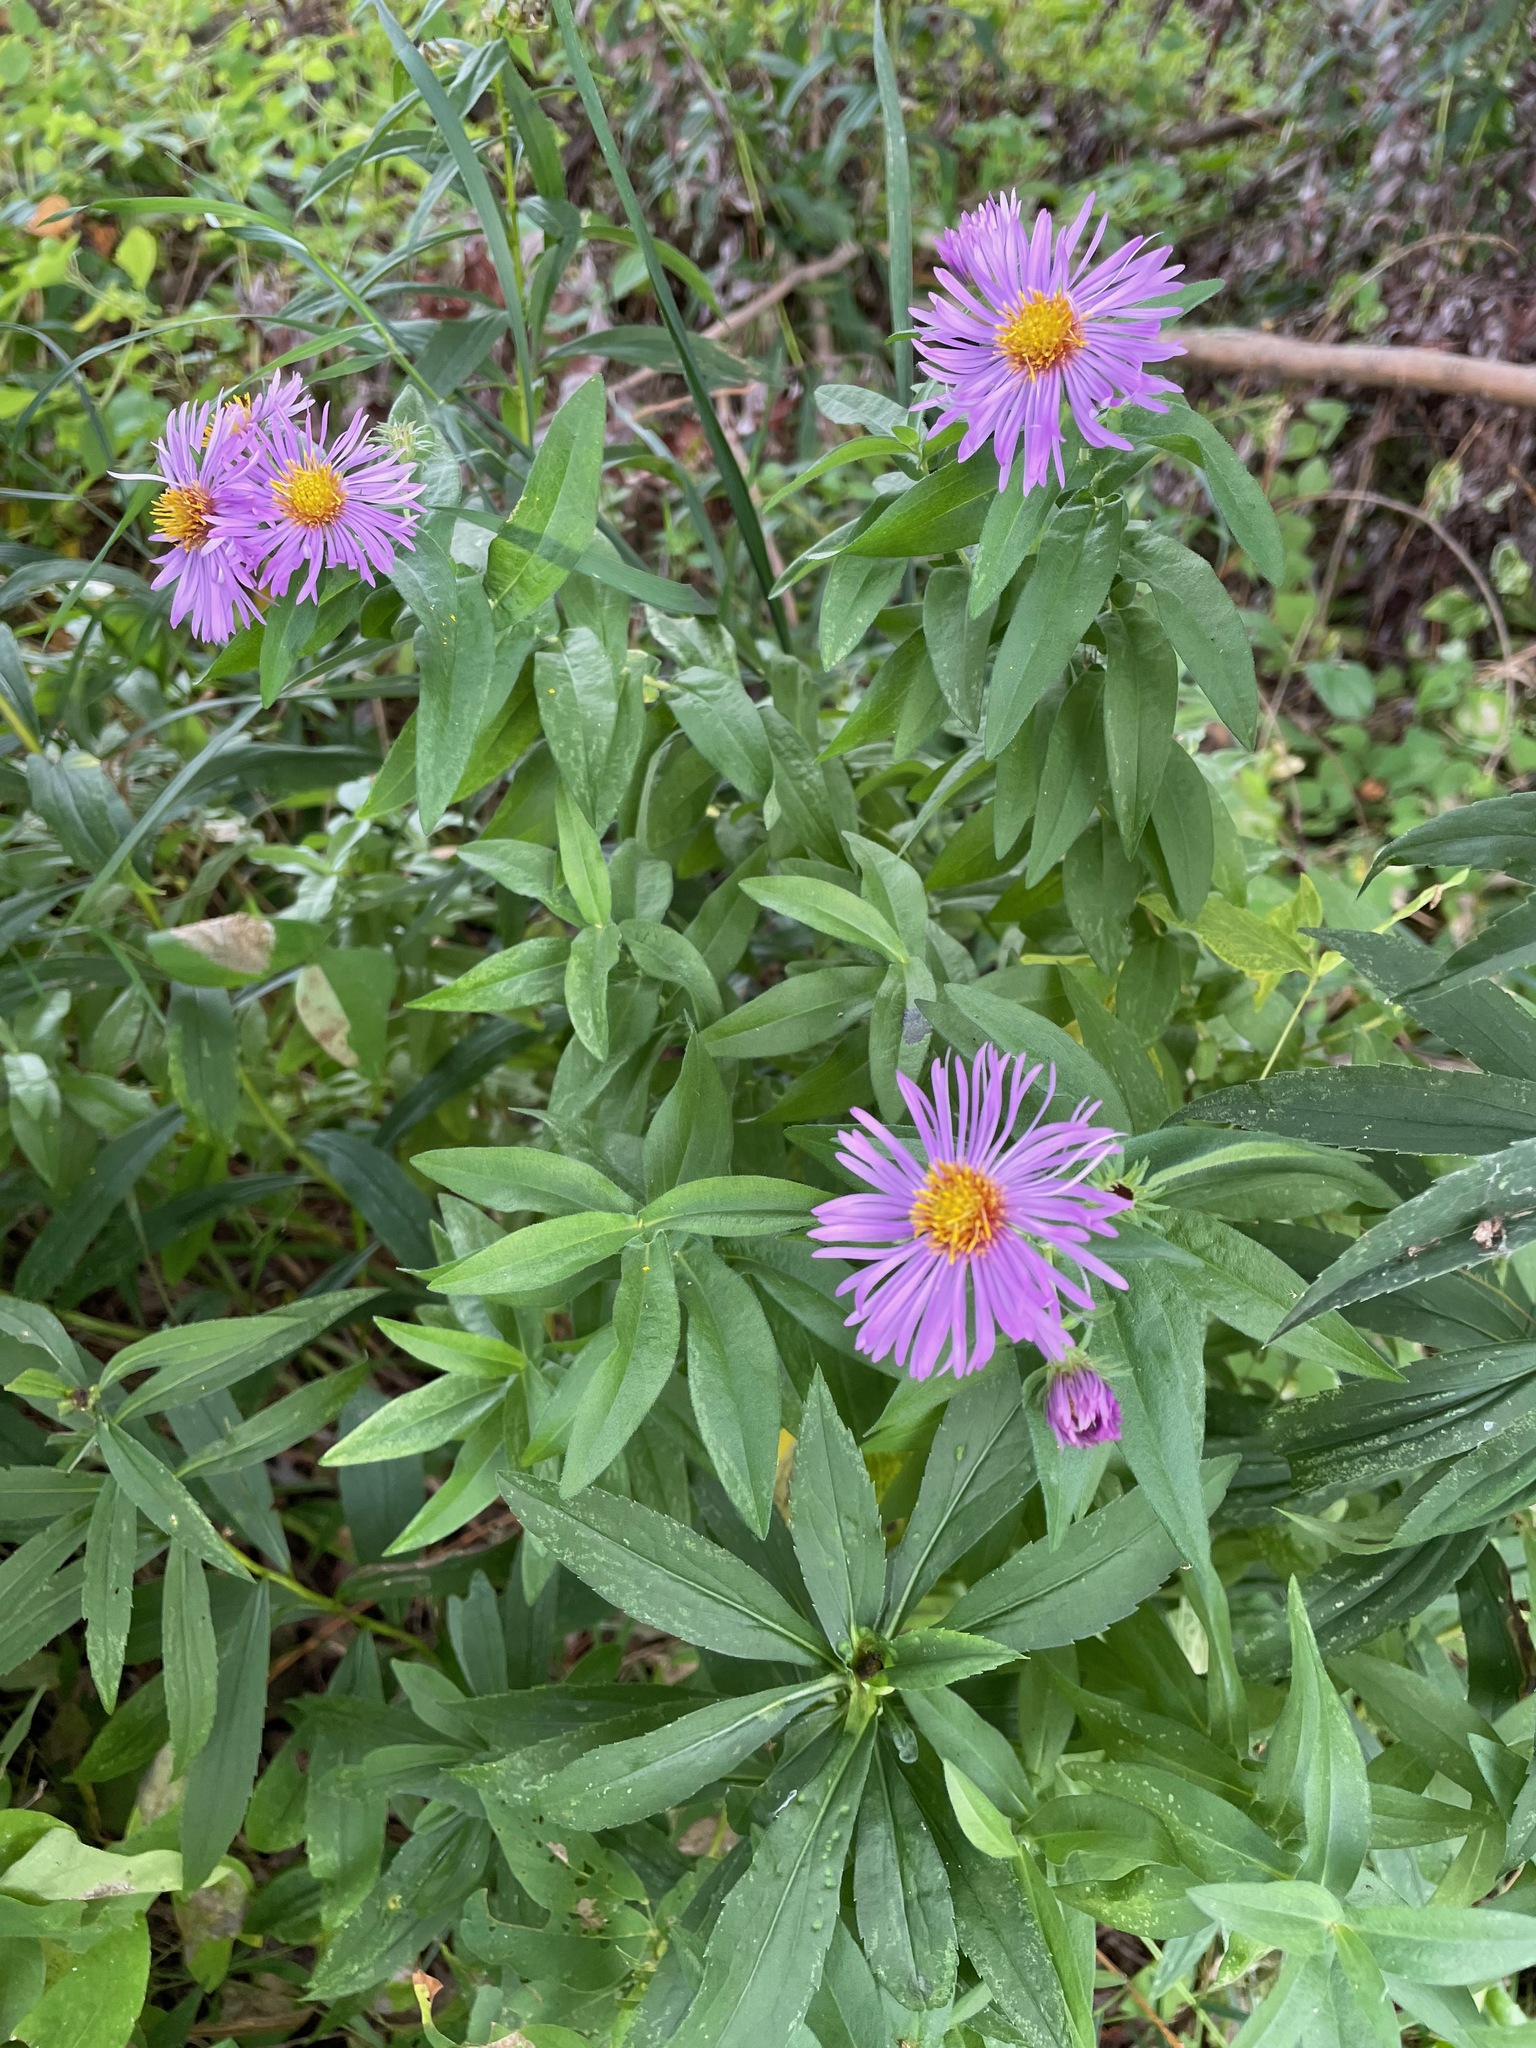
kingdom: Plantae
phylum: Tracheophyta
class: Magnoliopsida
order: Asterales
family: Asteraceae
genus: Symphyotrichum
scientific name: Symphyotrichum novae-angliae
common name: Michaelmas daisy
